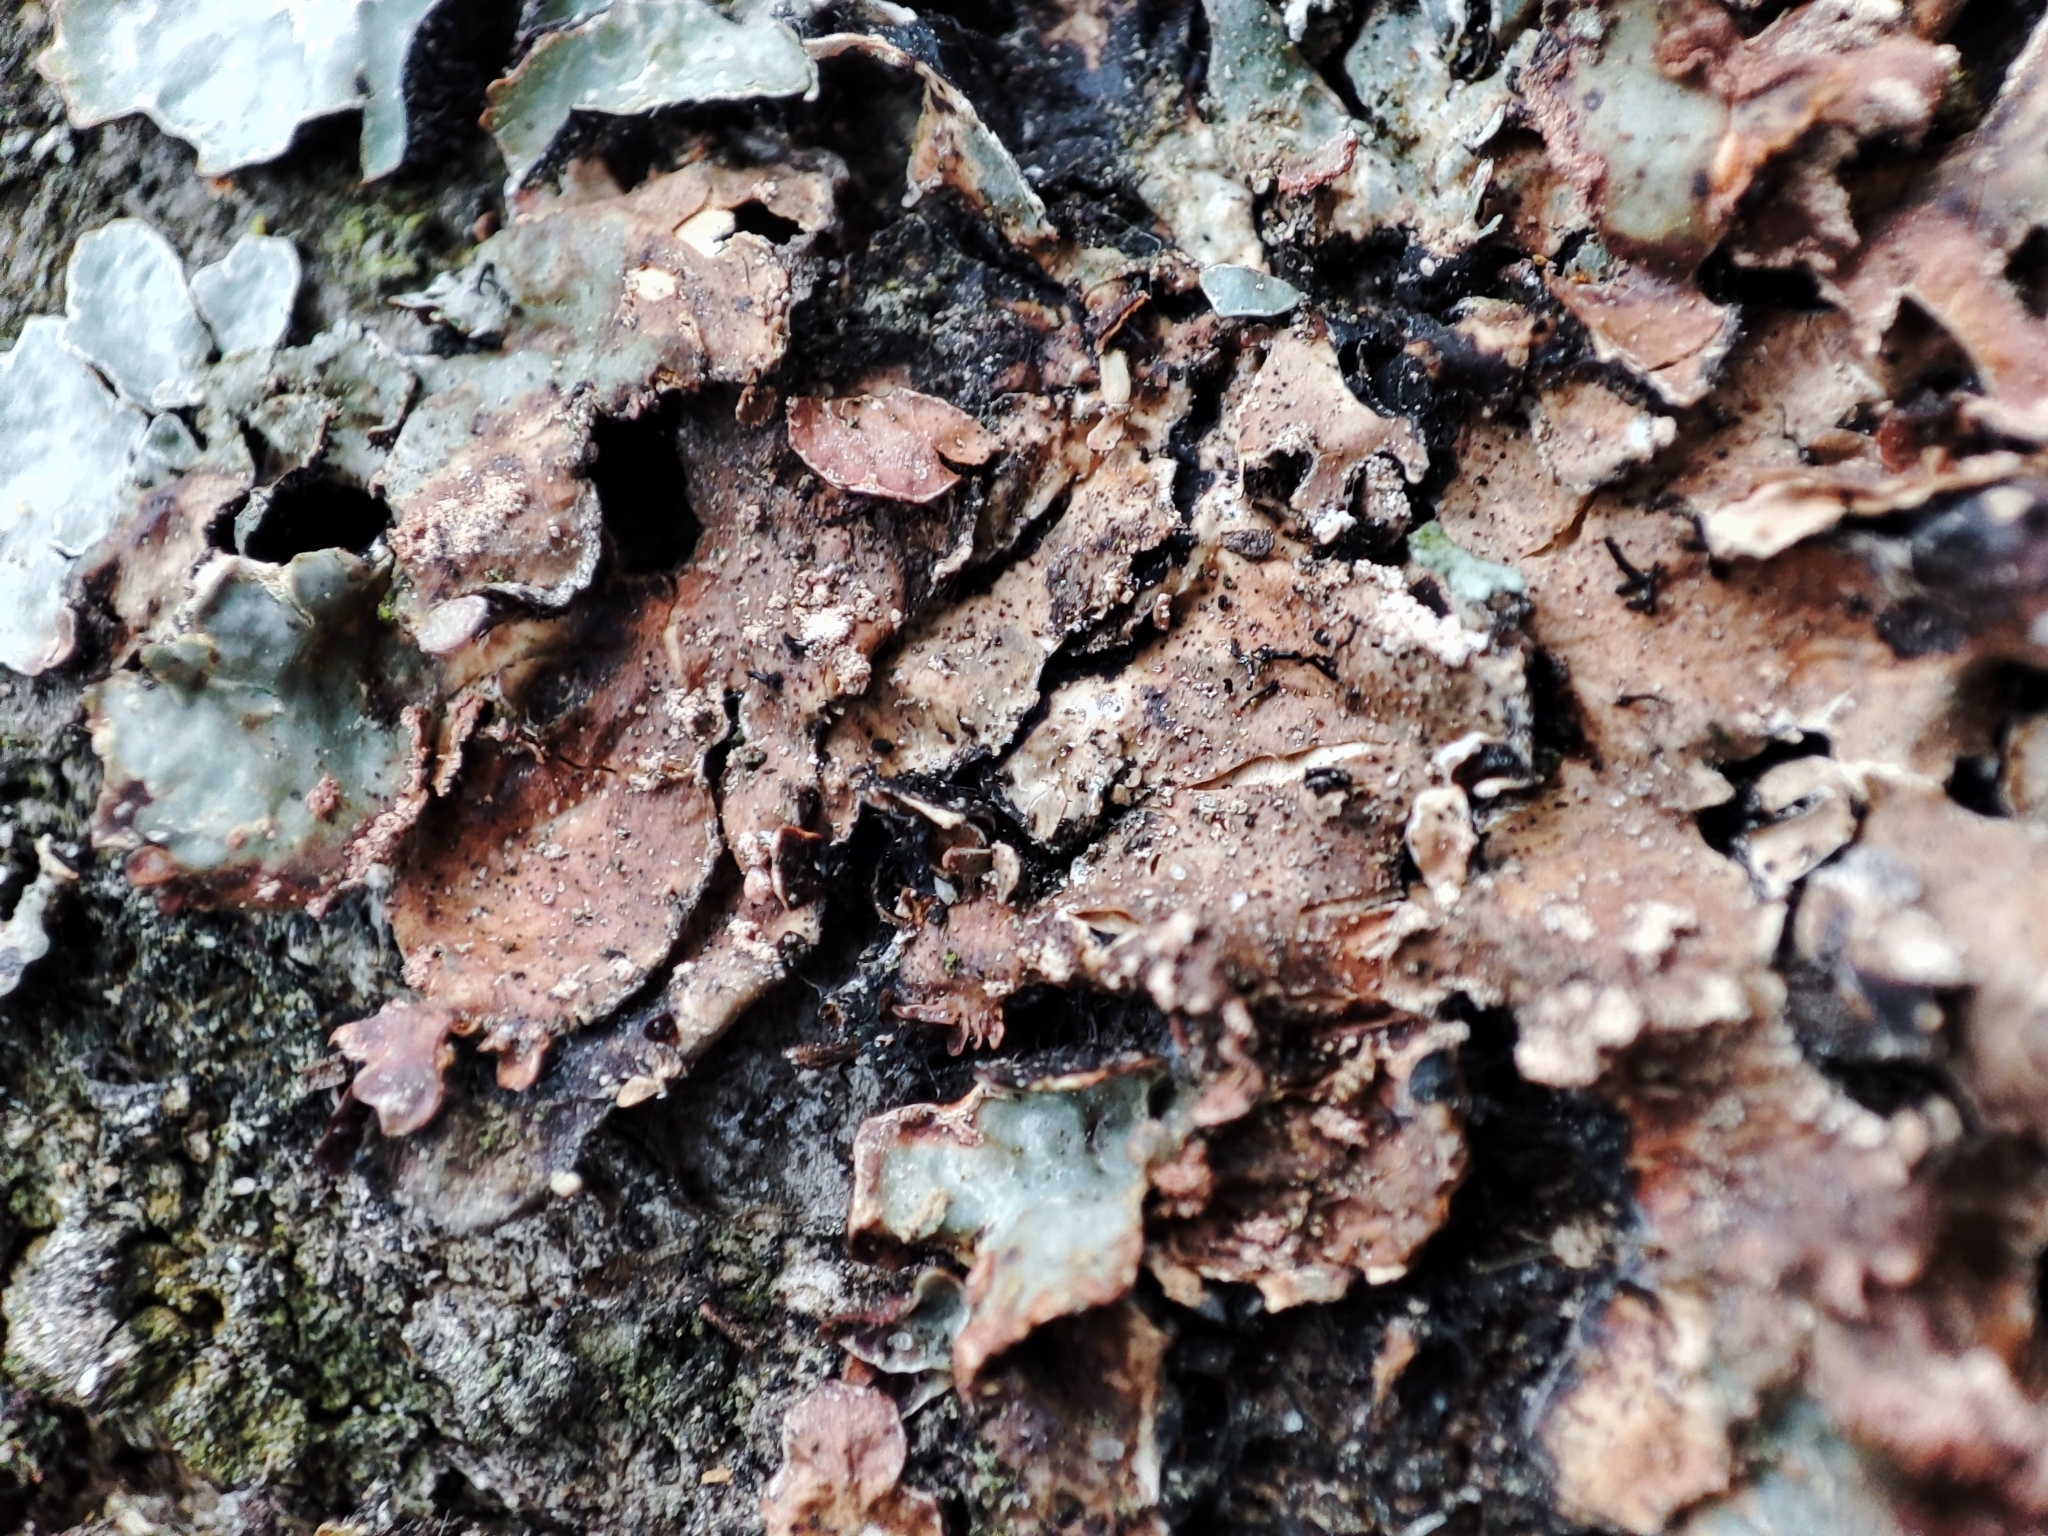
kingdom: Fungi
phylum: Ascomycota
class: Lecanoromycetes
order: Lecanorales
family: Parmeliaceae
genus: Parmelia
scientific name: Parmelia sulcata
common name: Netted shield lichen
